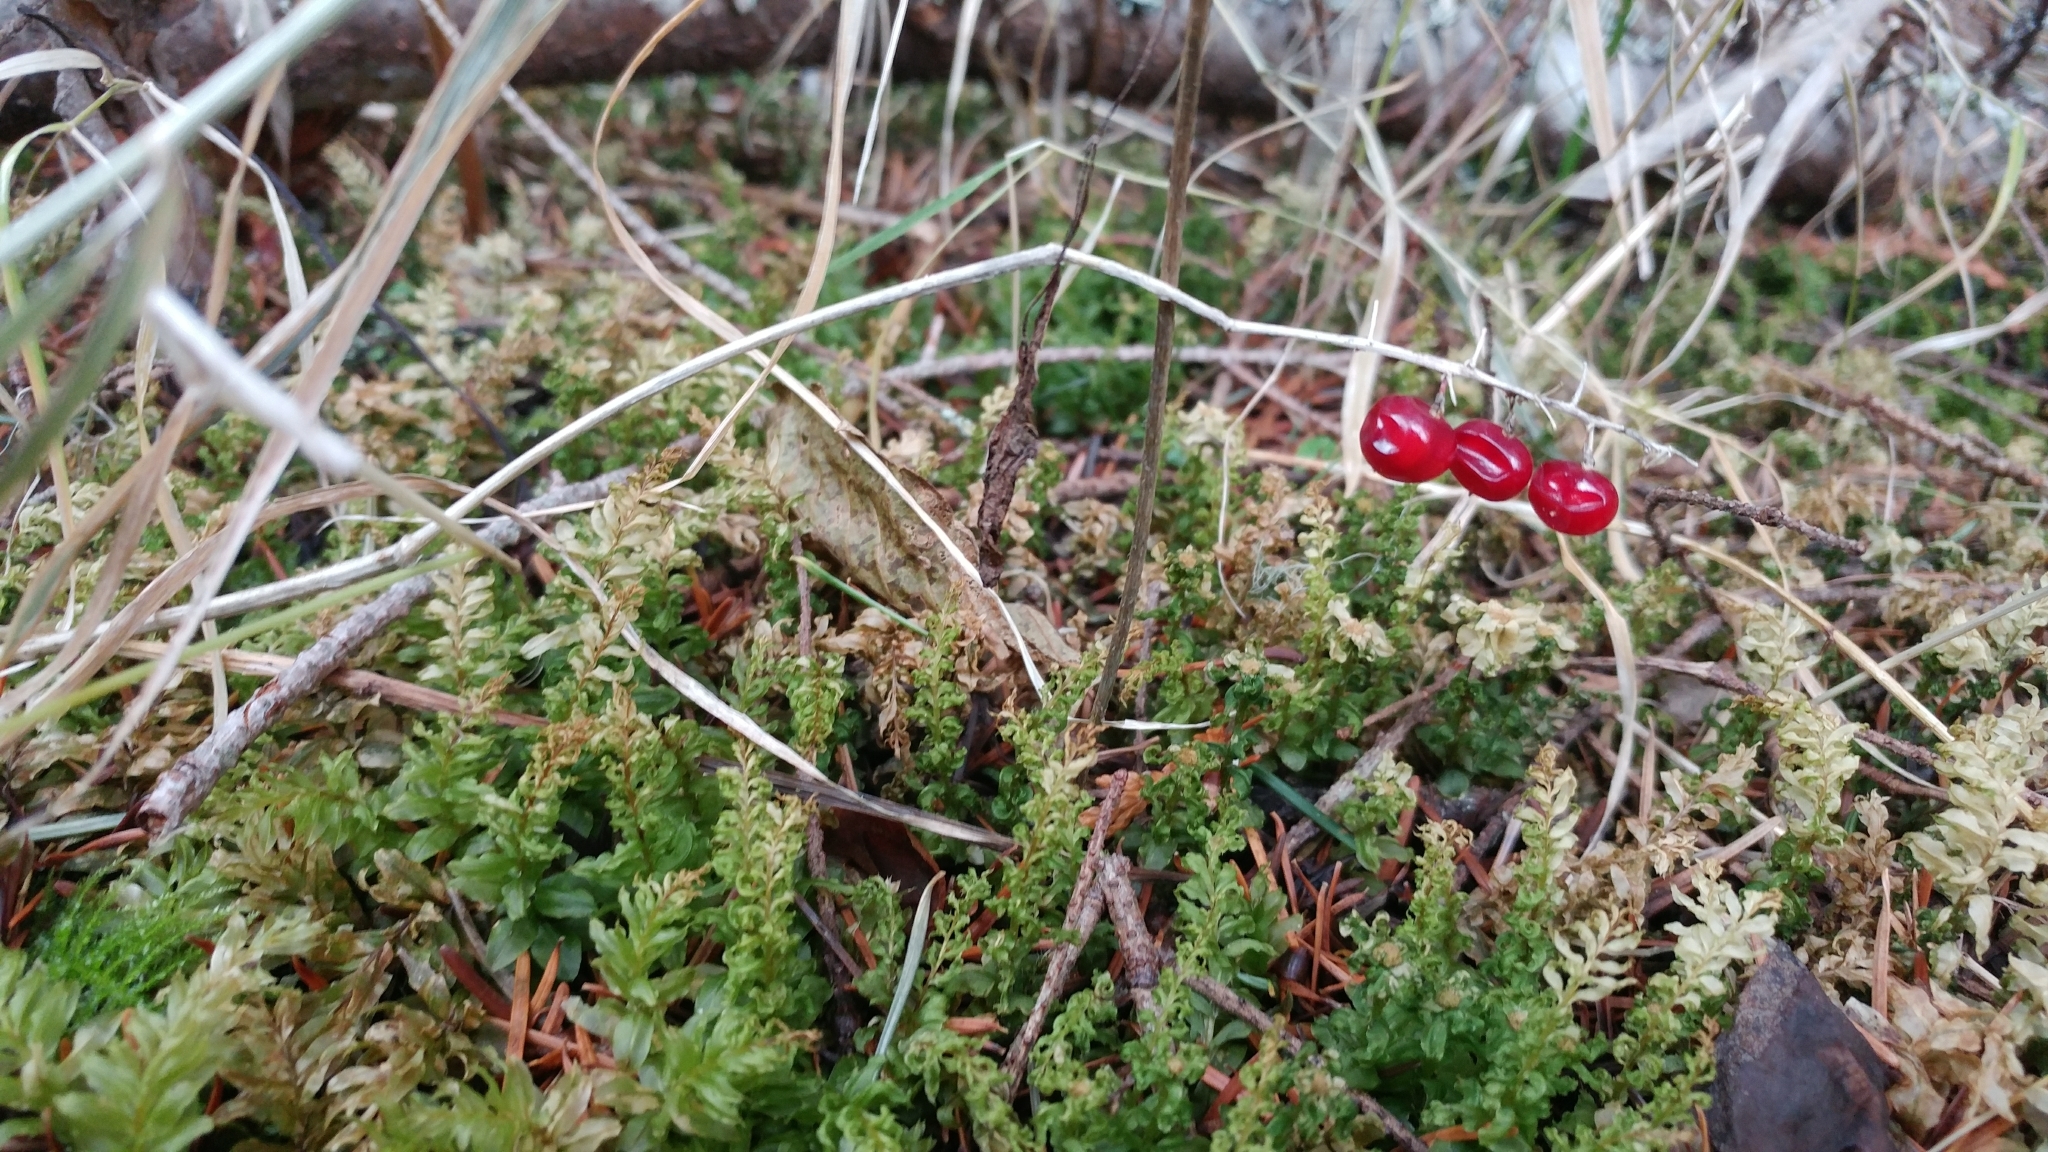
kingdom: Plantae
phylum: Tracheophyta
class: Liliopsida
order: Asparagales
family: Asparagaceae
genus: Maianthemum
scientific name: Maianthemum dilatatum
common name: False lily-of-the-valley
